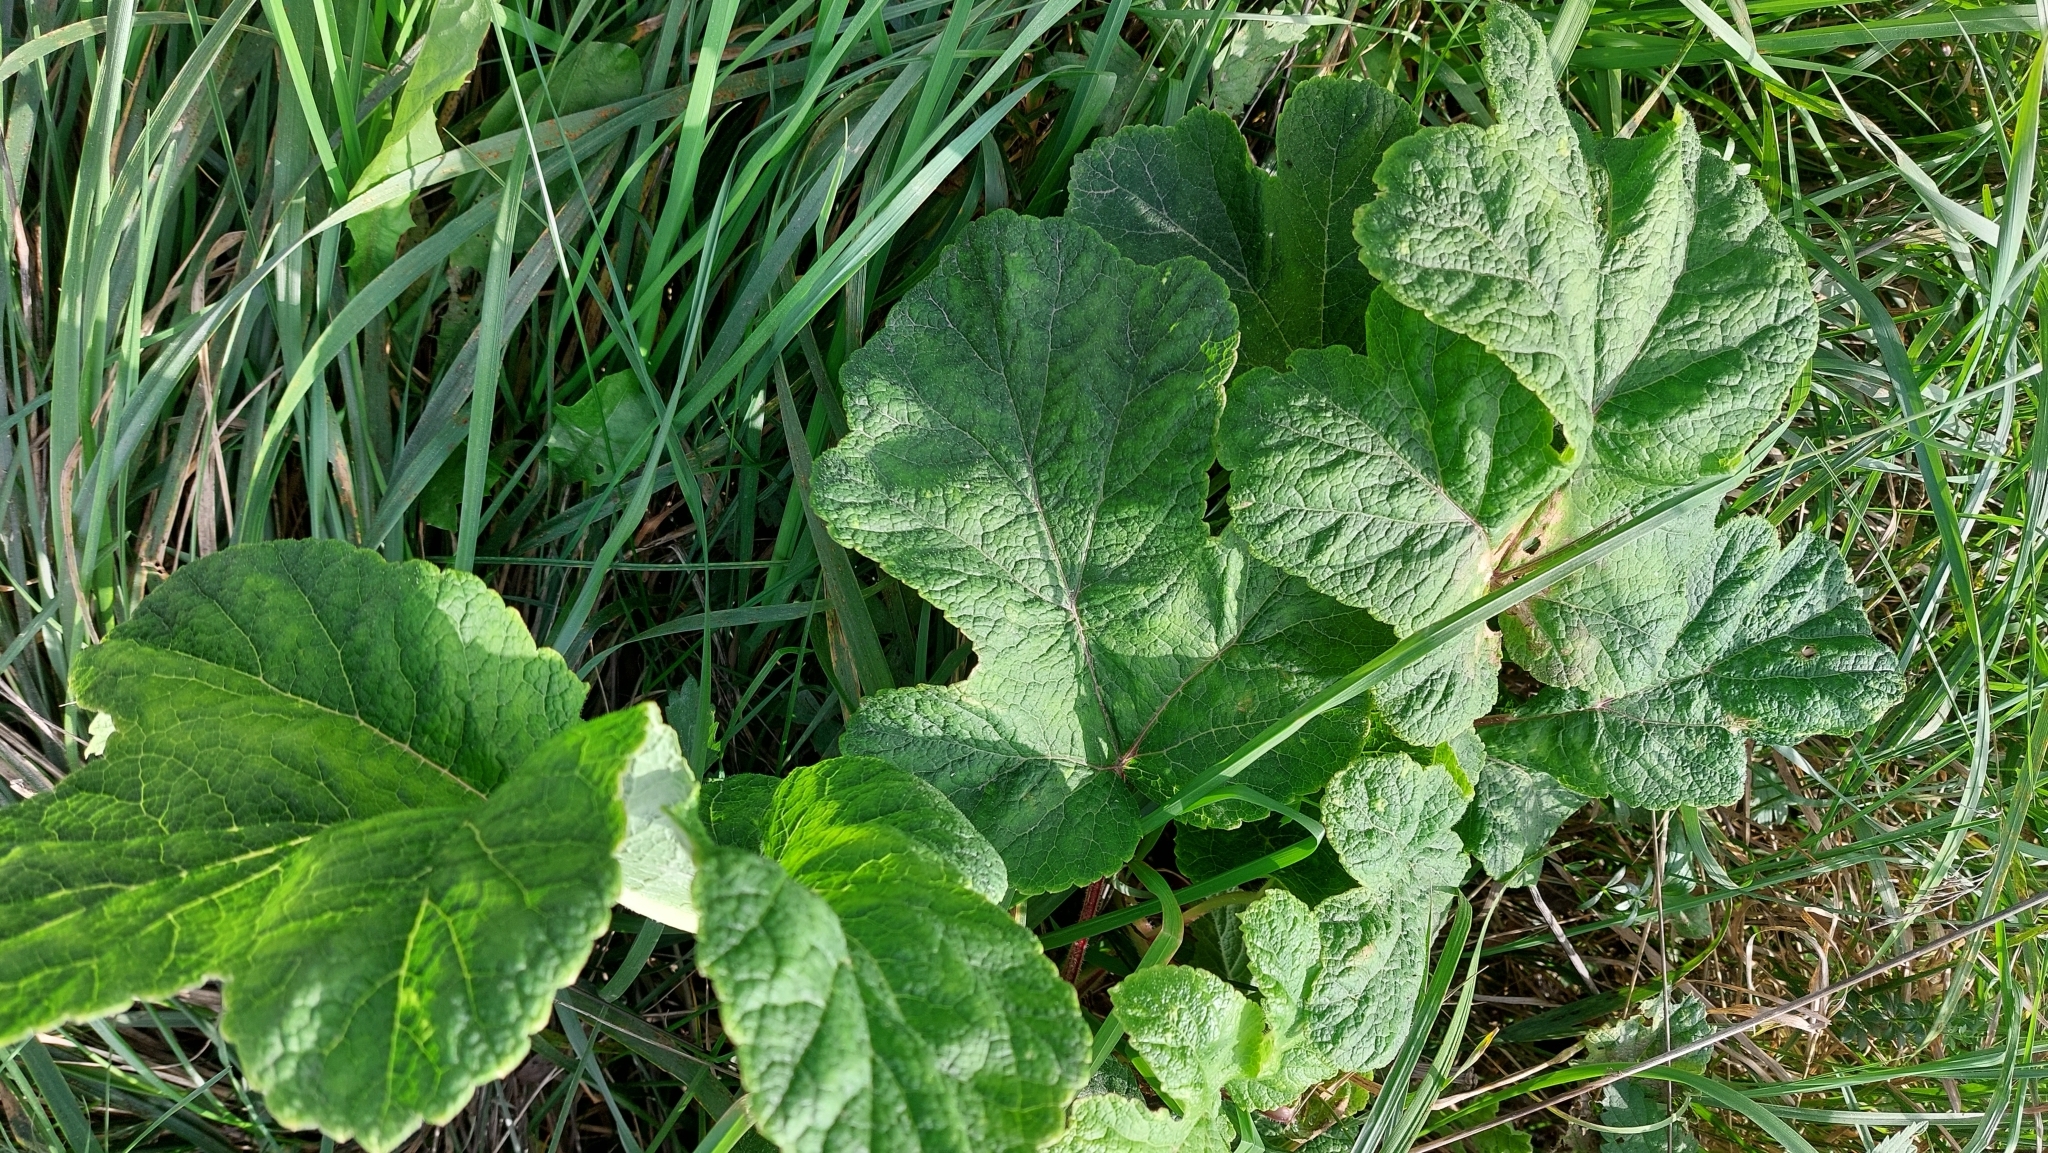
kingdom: Plantae
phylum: Tracheophyta
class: Magnoliopsida
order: Apiales
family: Apiaceae
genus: Heracleum
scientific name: Heracleum sphondylium
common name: Hogweed
